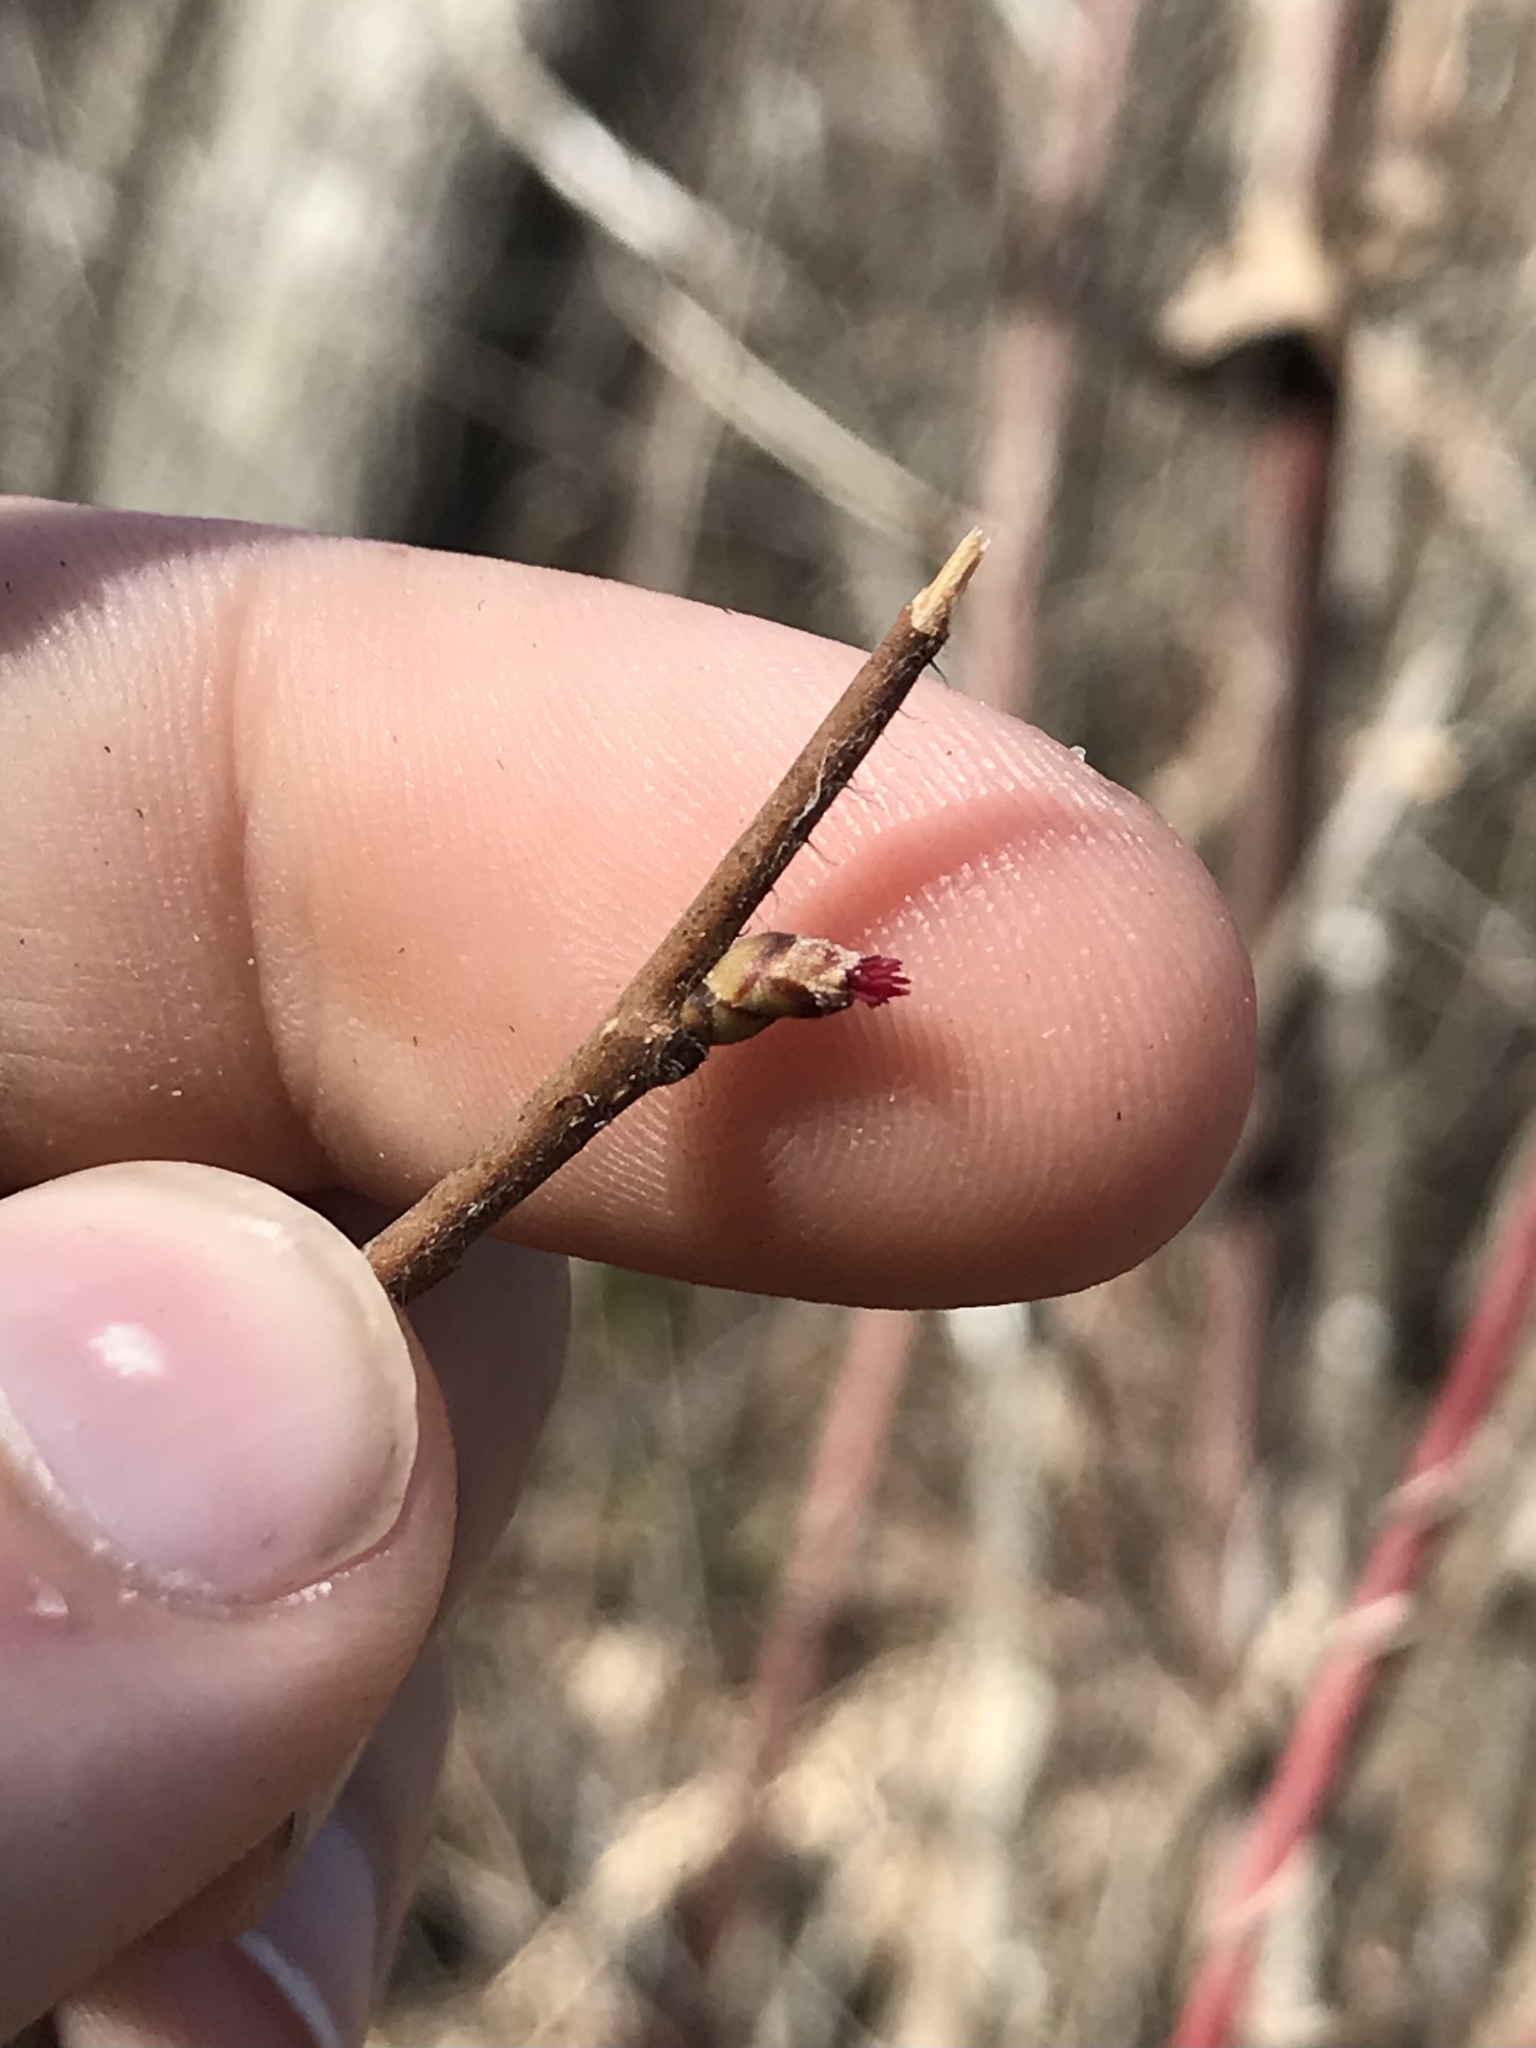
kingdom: Plantae
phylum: Tracheophyta
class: Magnoliopsida
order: Fagales
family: Betulaceae
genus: Corylus
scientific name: Corylus americana
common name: American hazel
